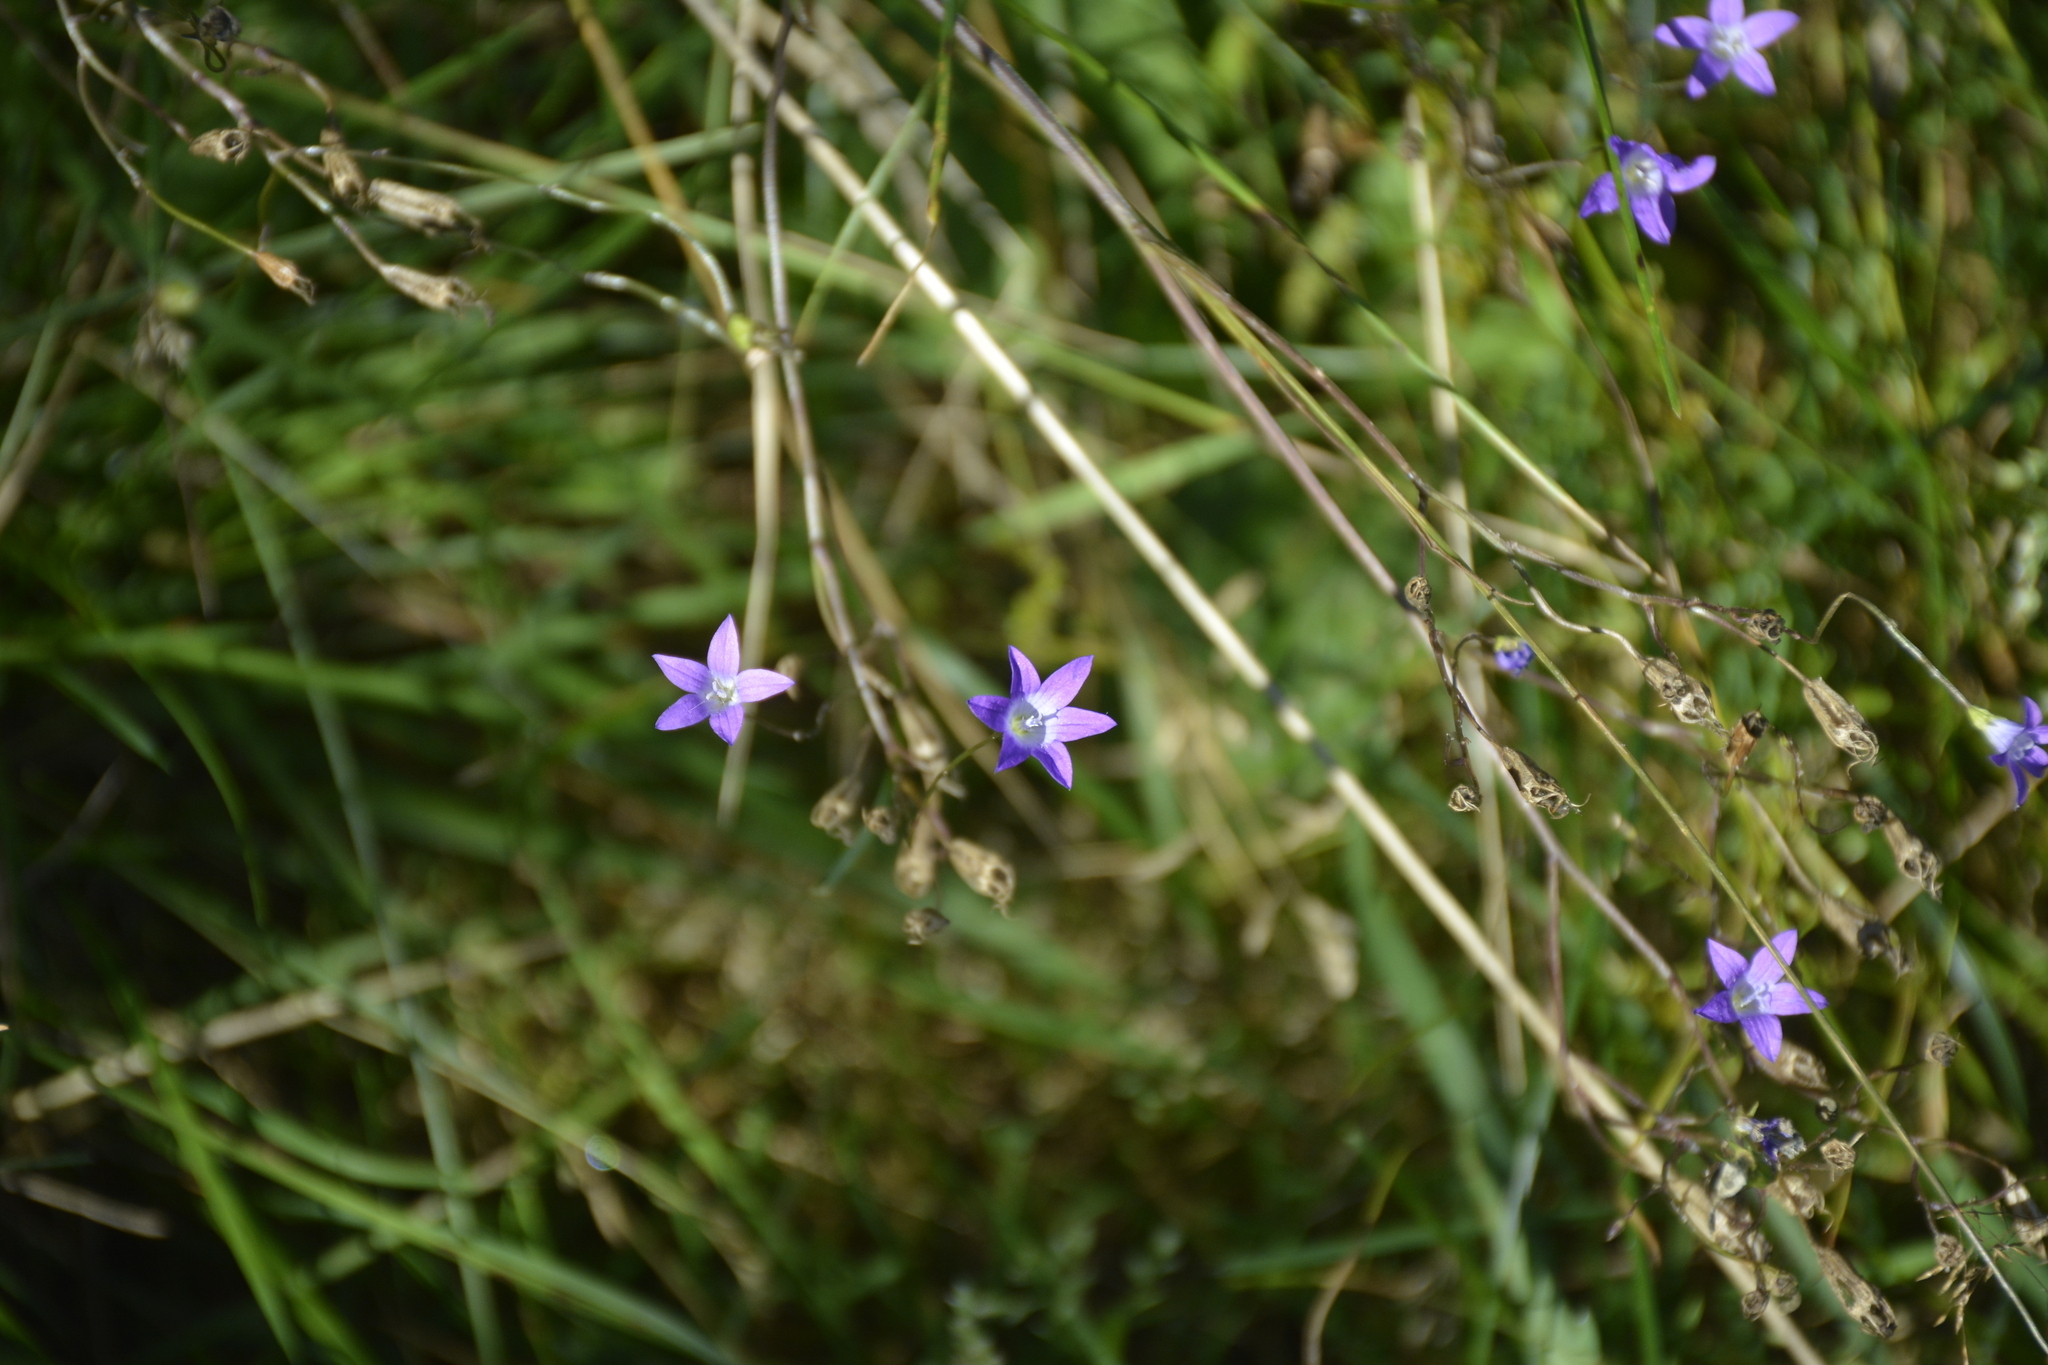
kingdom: Plantae
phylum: Tracheophyta
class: Magnoliopsida
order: Asterales
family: Campanulaceae
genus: Campanula
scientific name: Campanula patula
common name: Spreading bellflower
